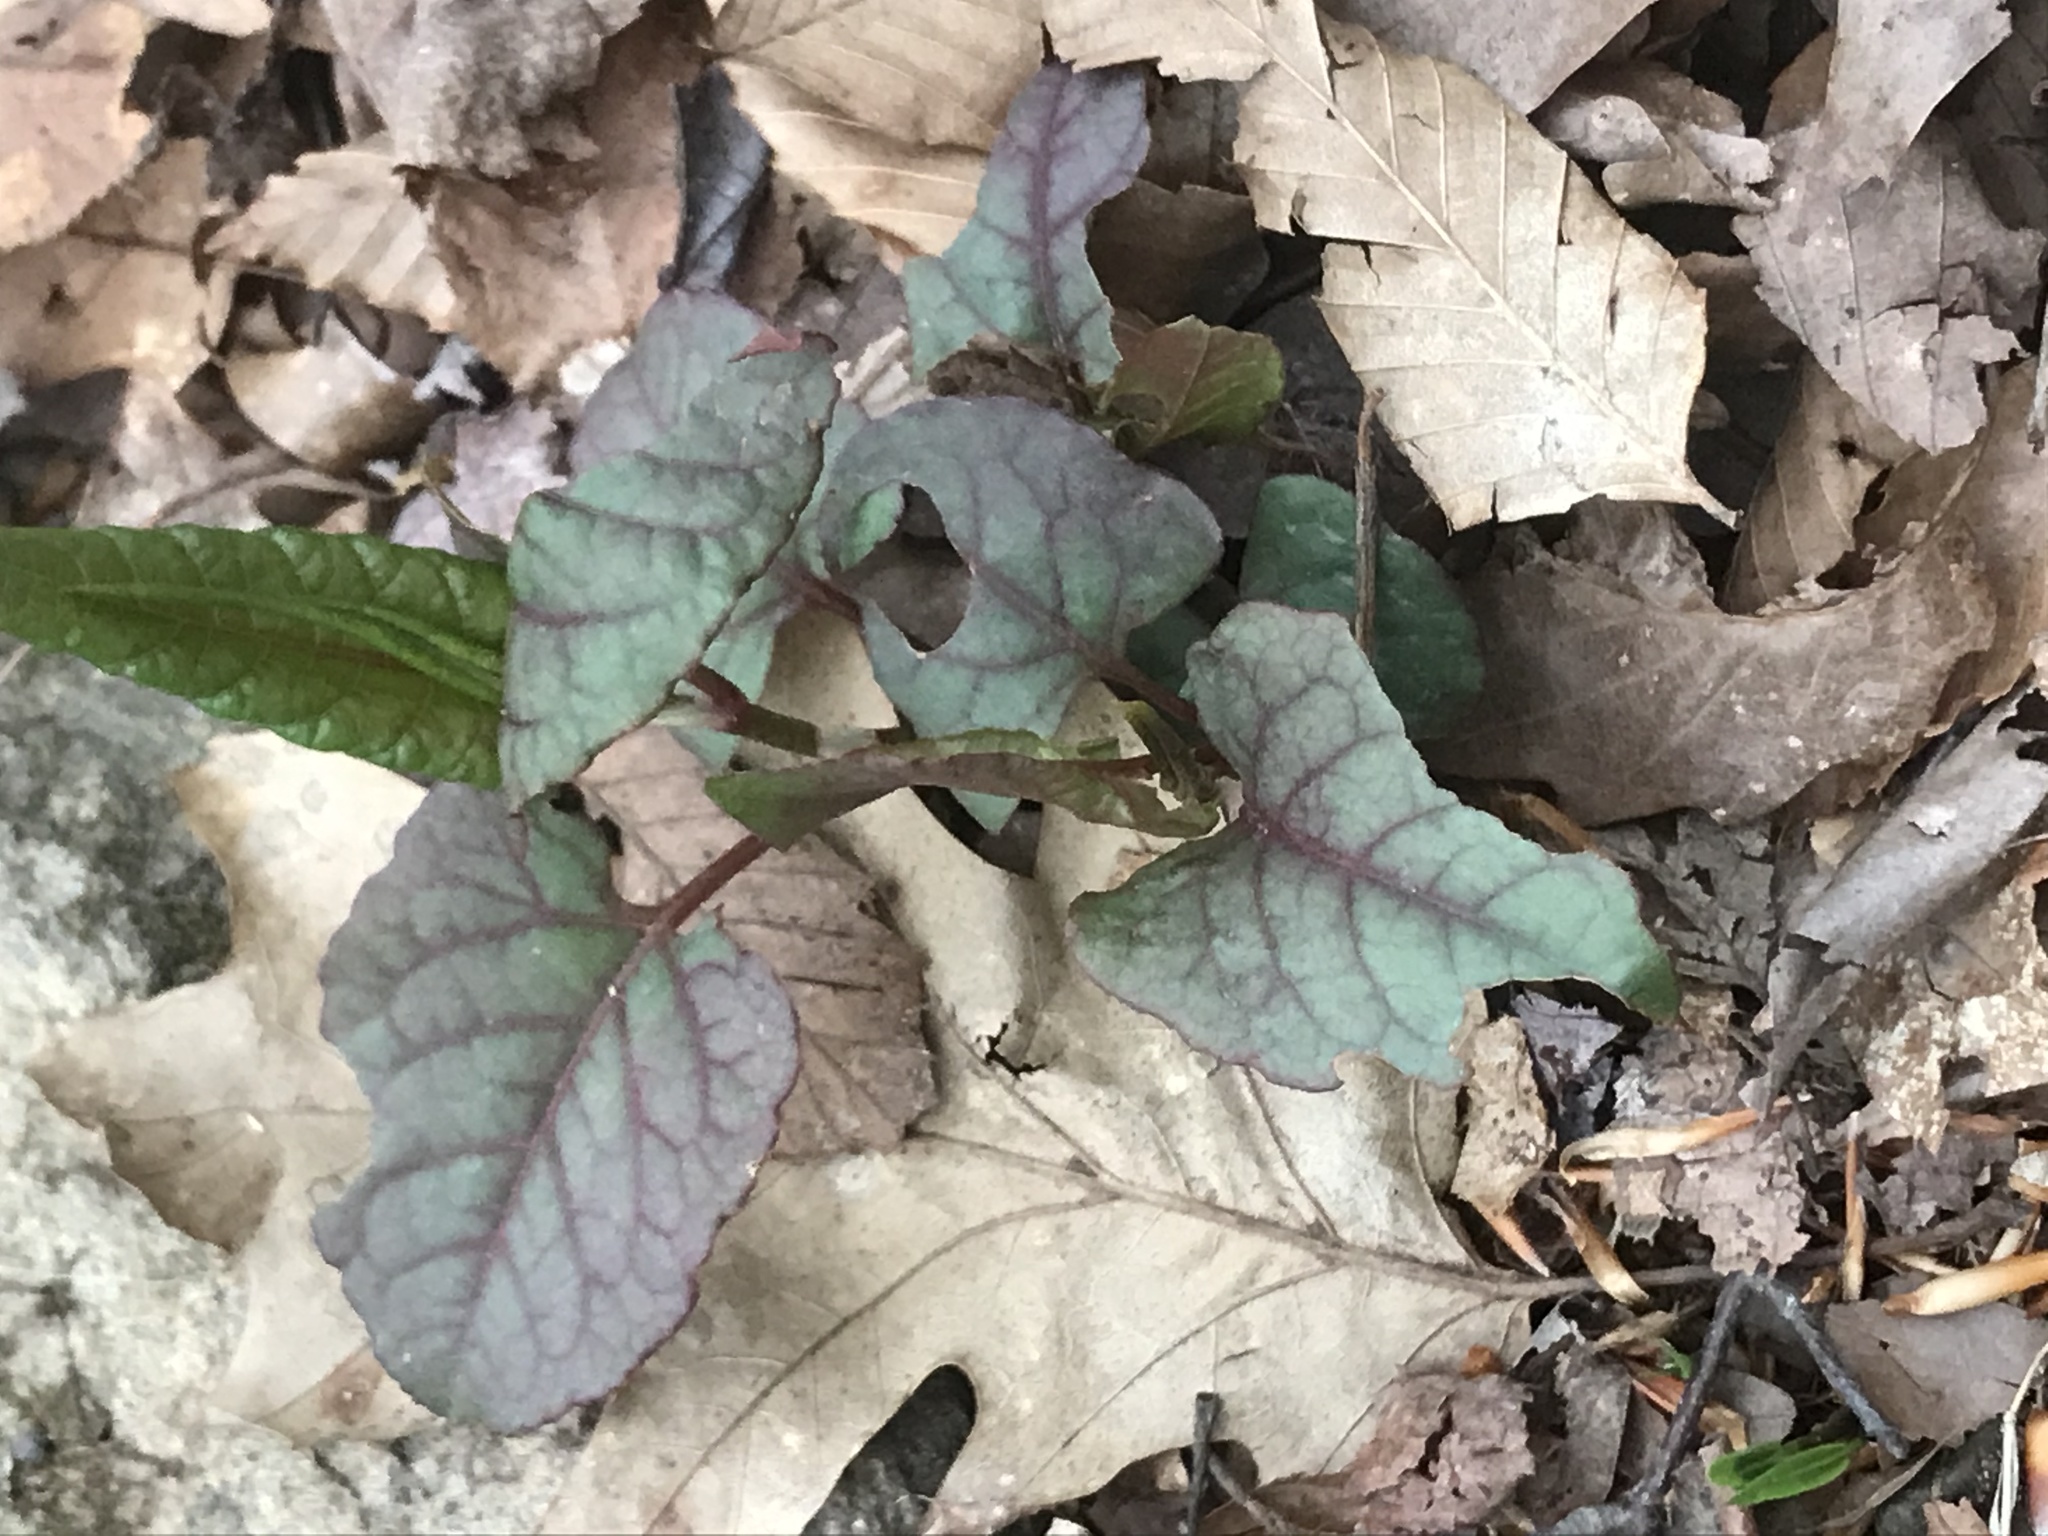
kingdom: Plantae
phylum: Tracheophyta
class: Magnoliopsida
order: Caryophyllales
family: Polygonaceae
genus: Reynoutria
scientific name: Reynoutria bohemica
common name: Bohemian knotweed
